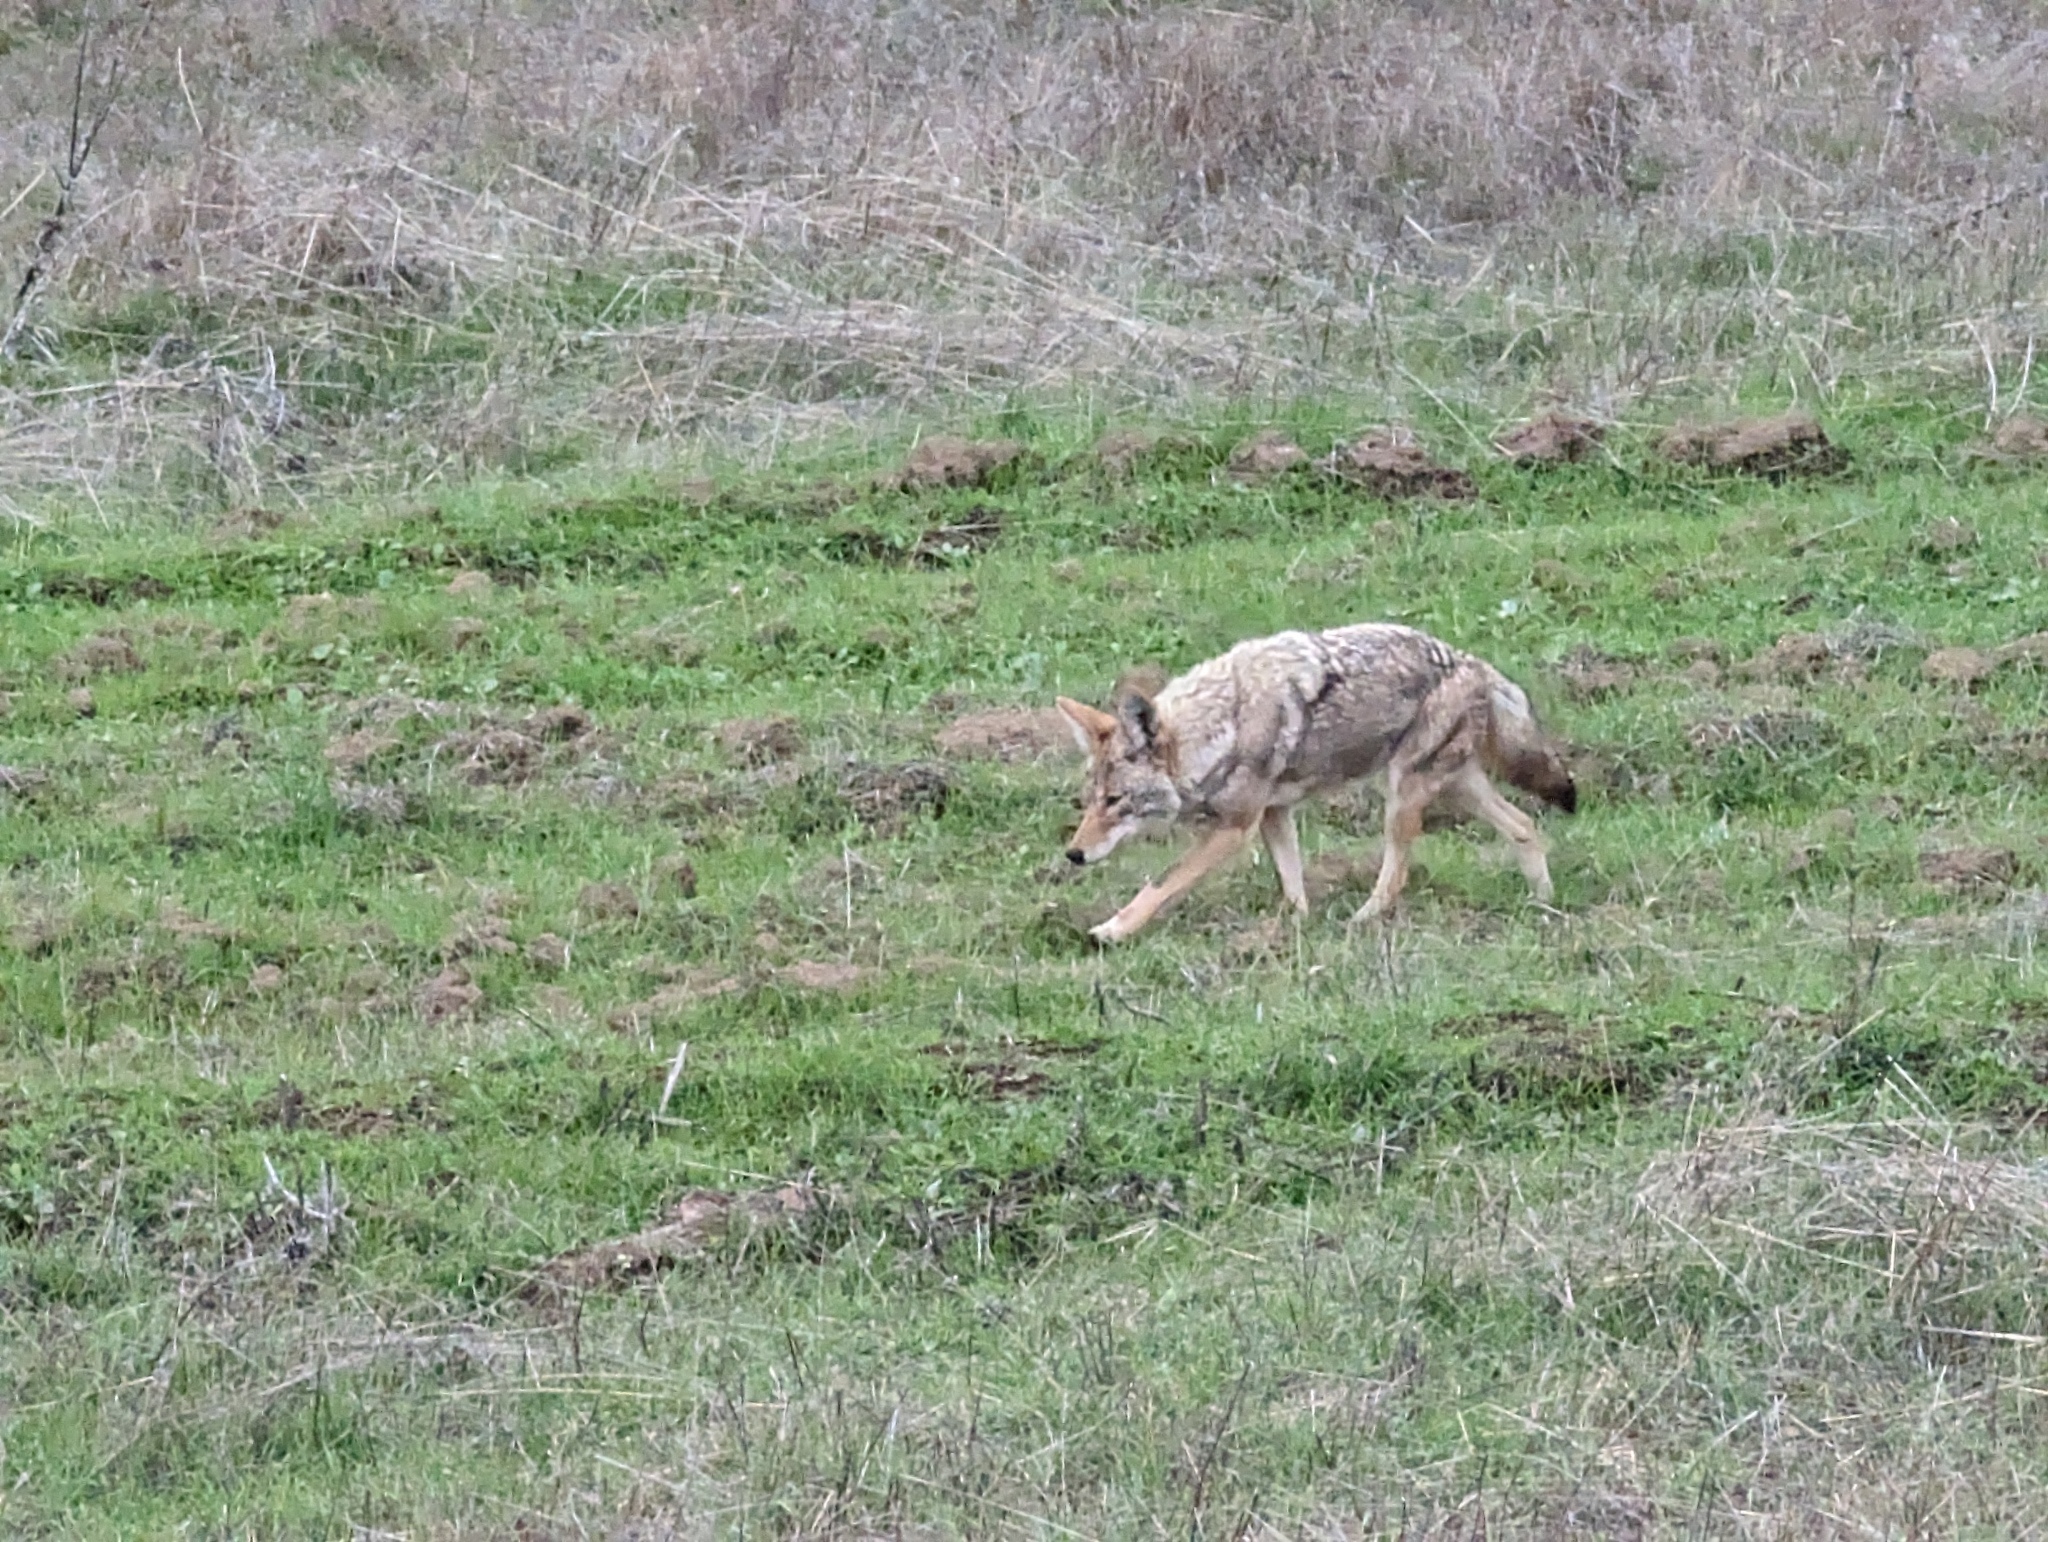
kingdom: Animalia
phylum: Chordata
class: Mammalia
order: Carnivora
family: Canidae
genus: Canis
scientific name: Canis latrans
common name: Coyote
